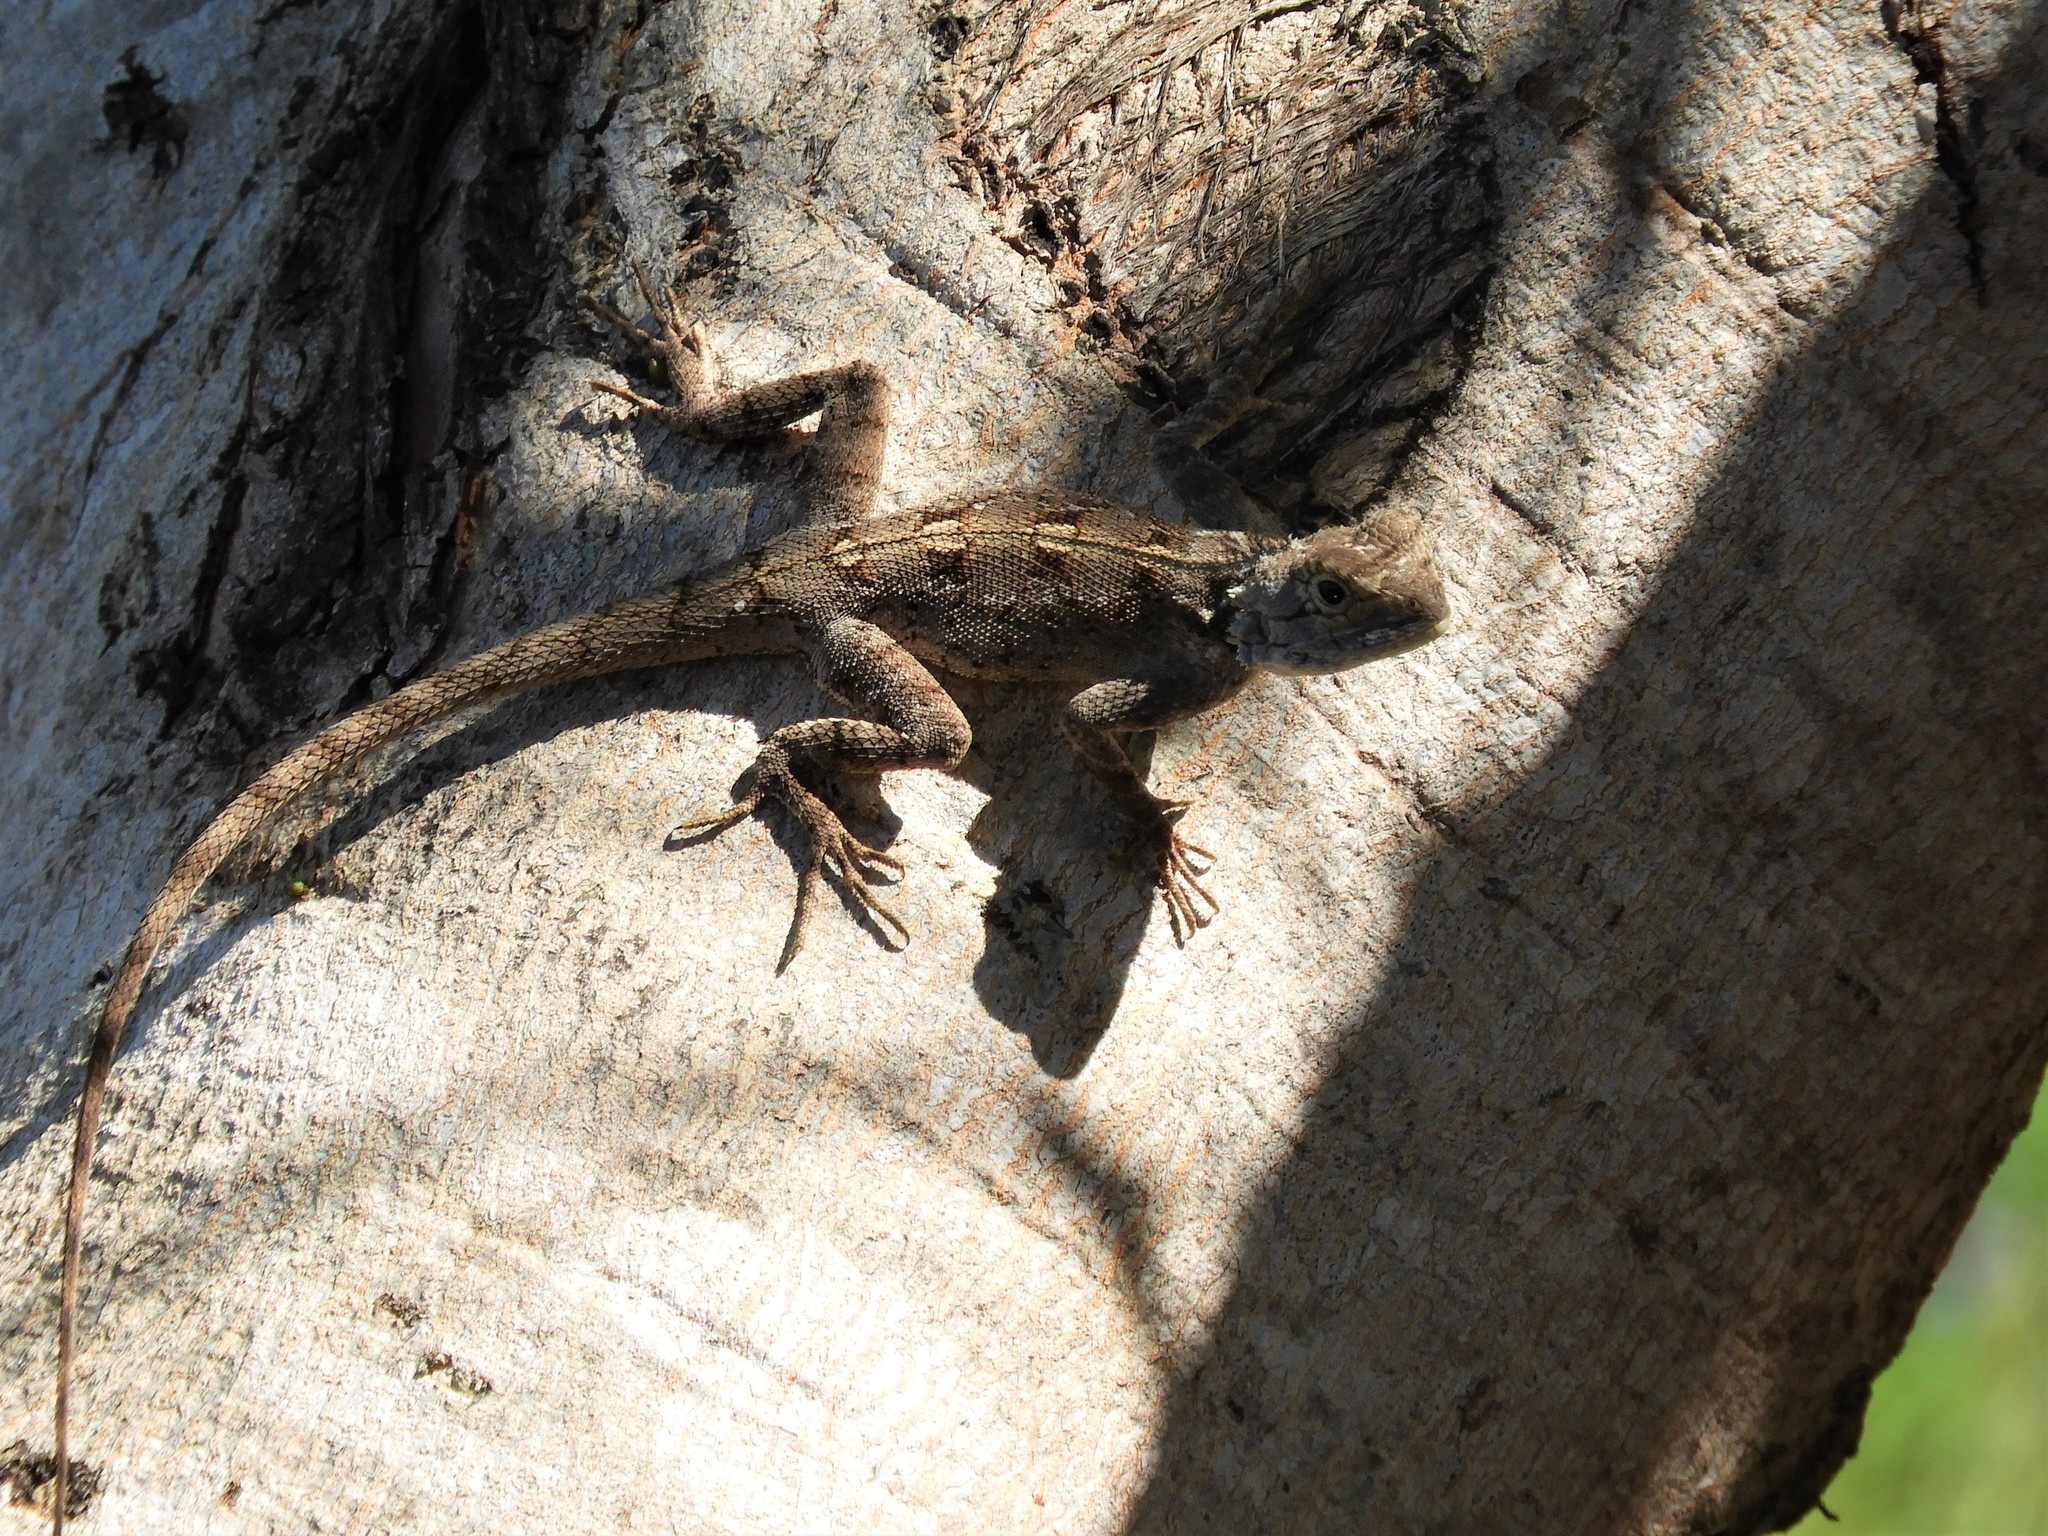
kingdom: Animalia
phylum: Chordata
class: Squamata
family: Agamidae
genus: Agama
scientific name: Agama mossambica
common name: Mozambique agama
